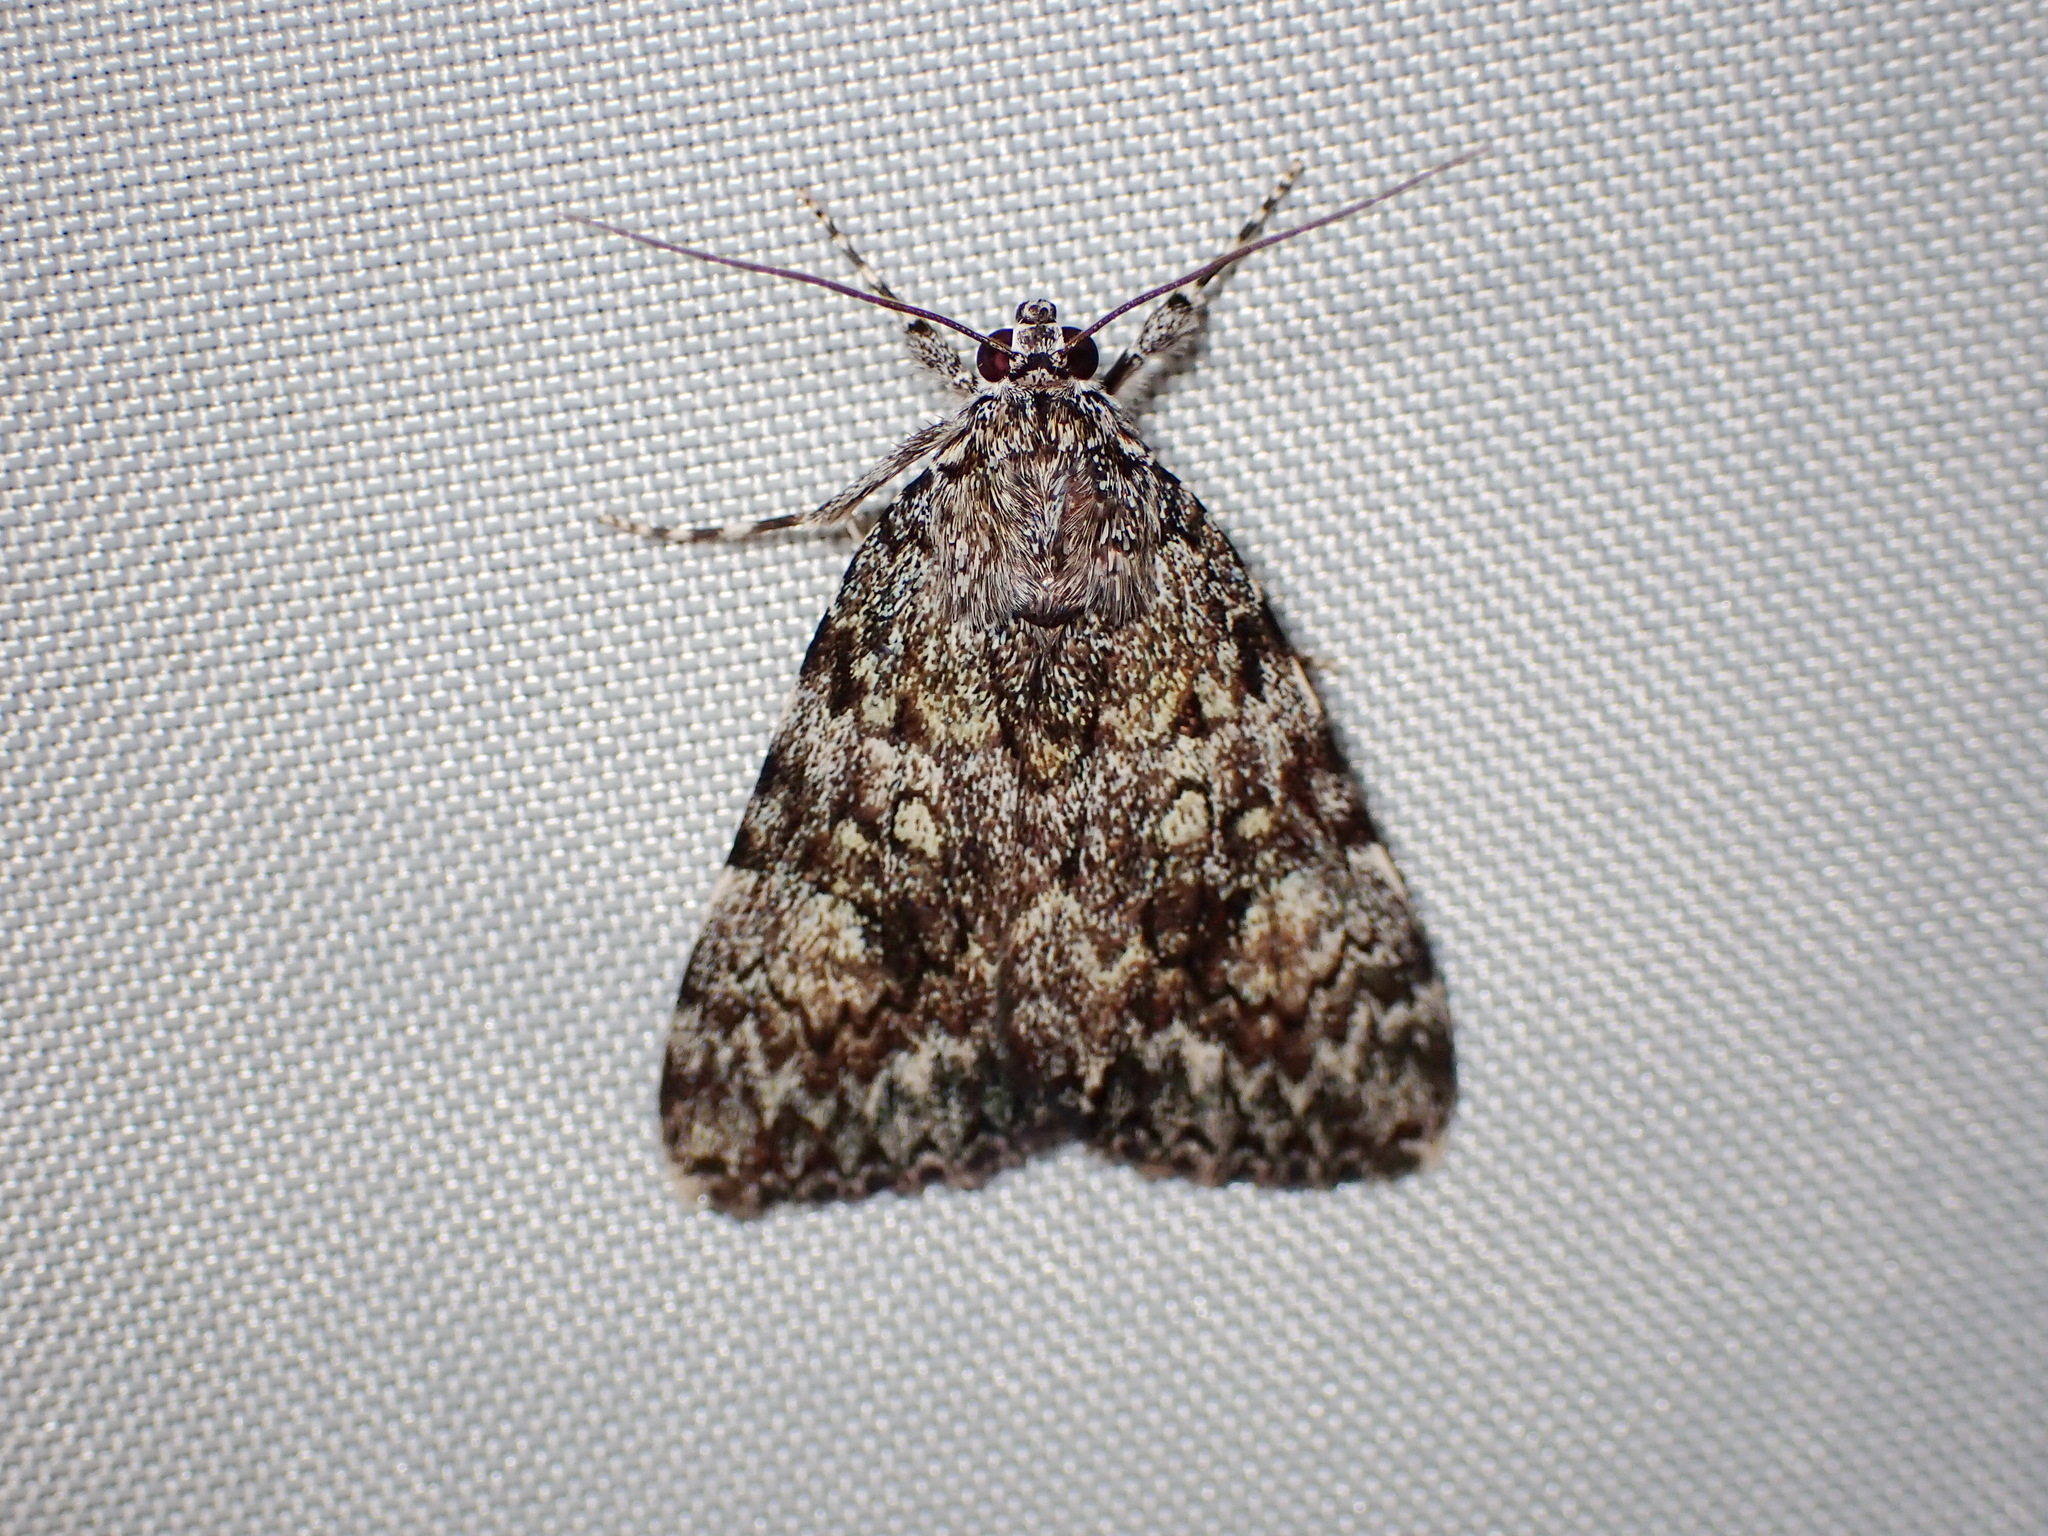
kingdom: Animalia
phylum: Arthropoda
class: Insecta
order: Lepidoptera
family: Erebidae
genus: Catocala
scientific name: Catocala lineella
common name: Little lined underwing
